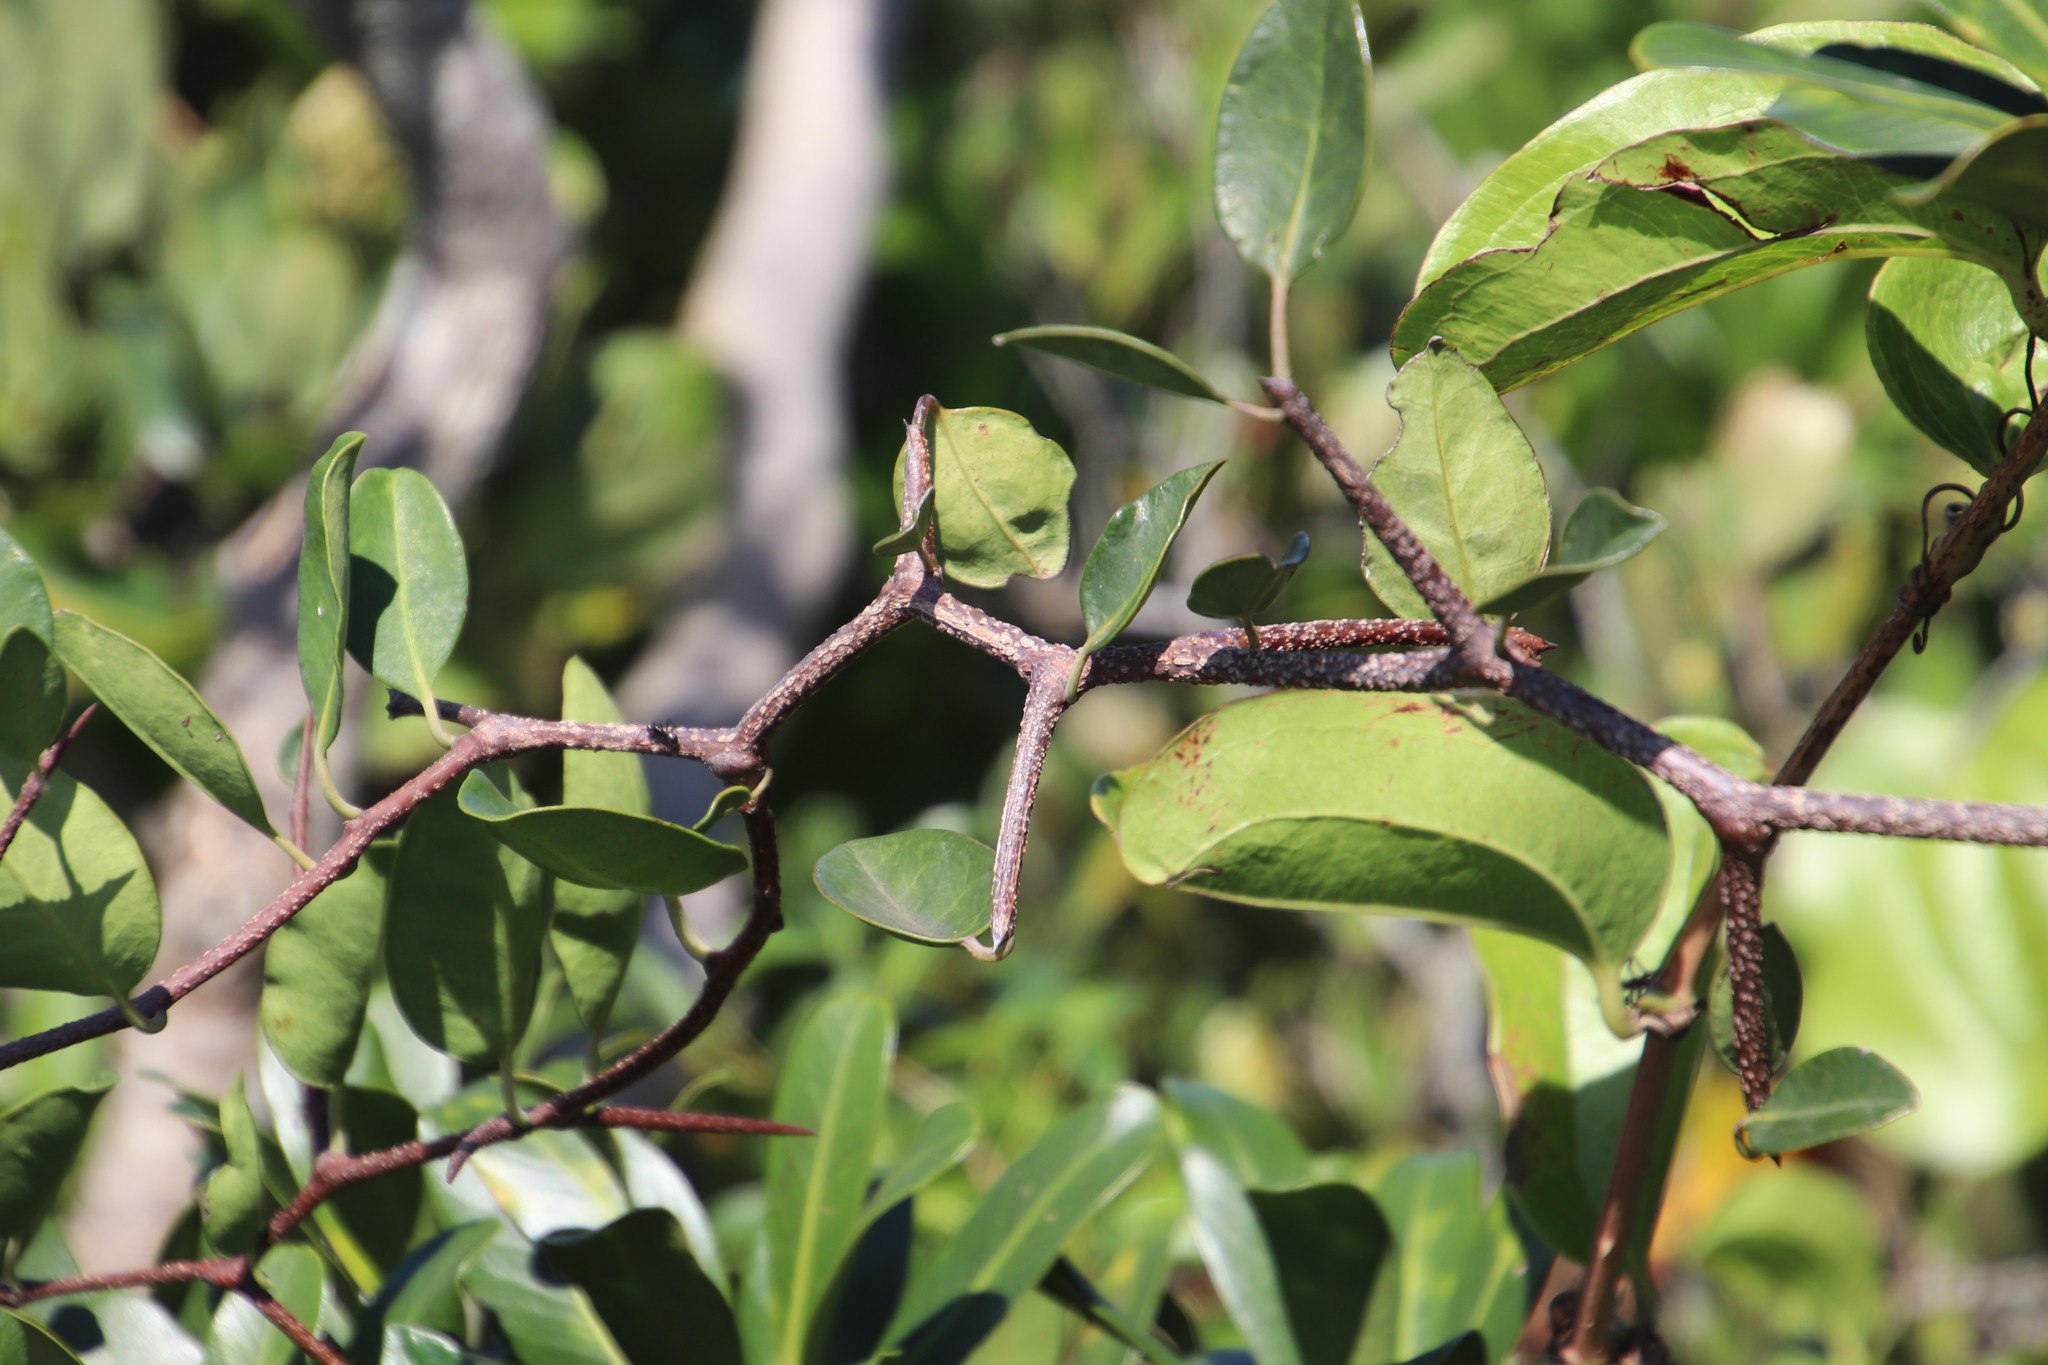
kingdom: Plantae
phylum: Tracheophyta
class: Magnoliopsida
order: Celastrales
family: Celastraceae
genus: Putterlickia
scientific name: Putterlickia retrospinosa
